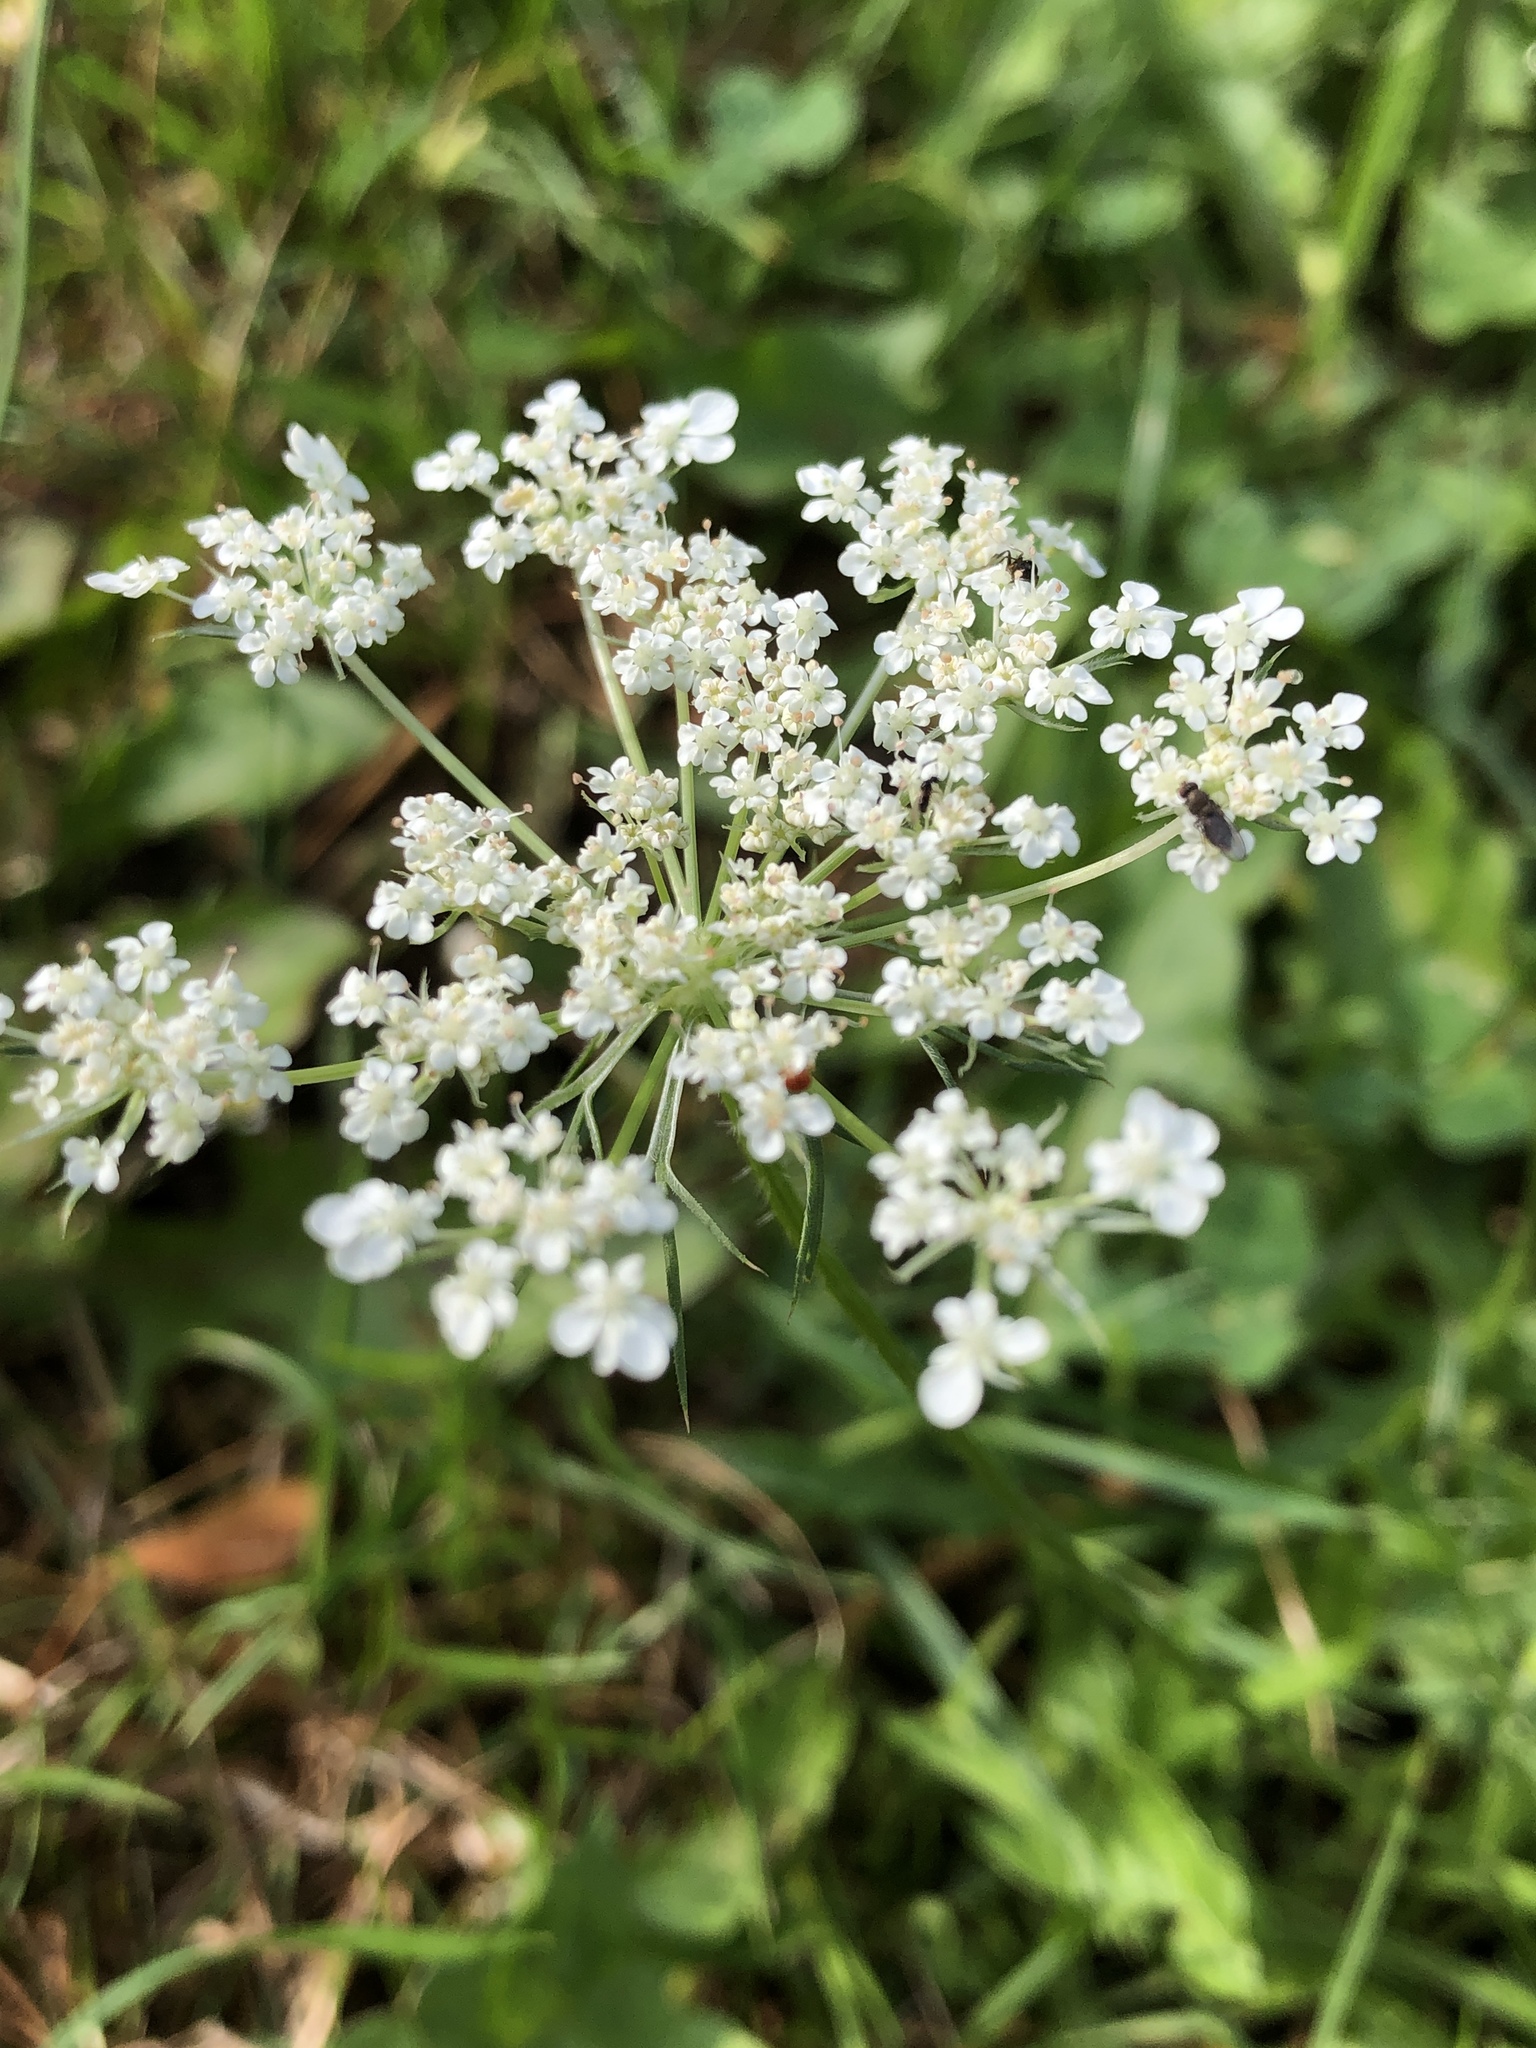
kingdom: Plantae
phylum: Tracheophyta
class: Magnoliopsida
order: Apiales
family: Apiaceae
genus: Daucus
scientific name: Daucus carota
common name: Wild carrot
